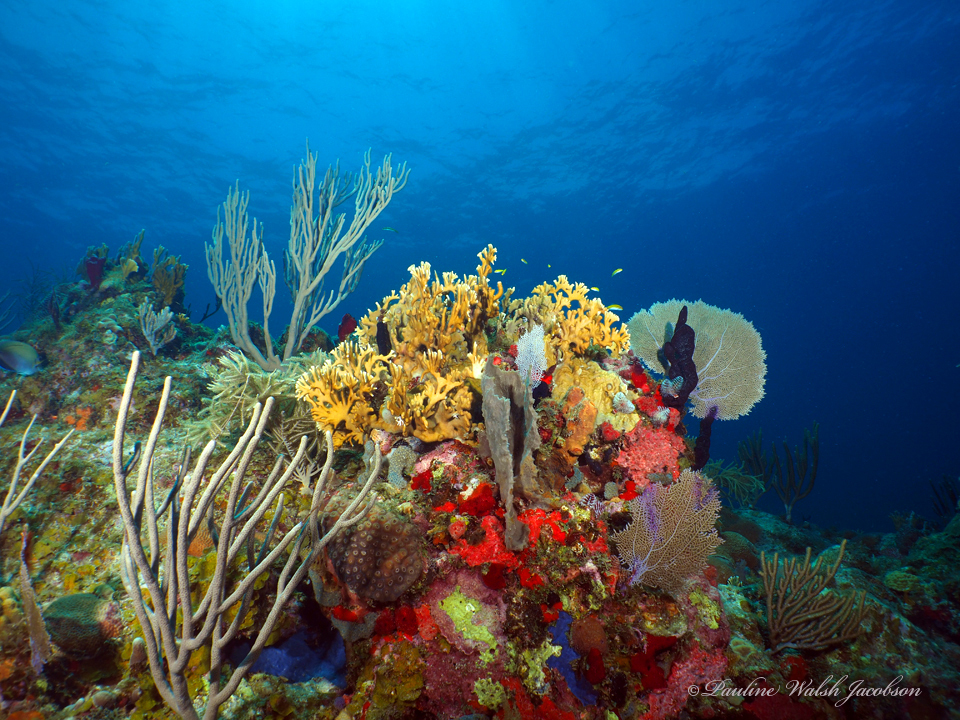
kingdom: Animalia
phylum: Chordata
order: Perciformes
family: Labridae
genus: Thalassoma
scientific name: Thalassoma bifasciatum
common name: Bluehead wrasse
